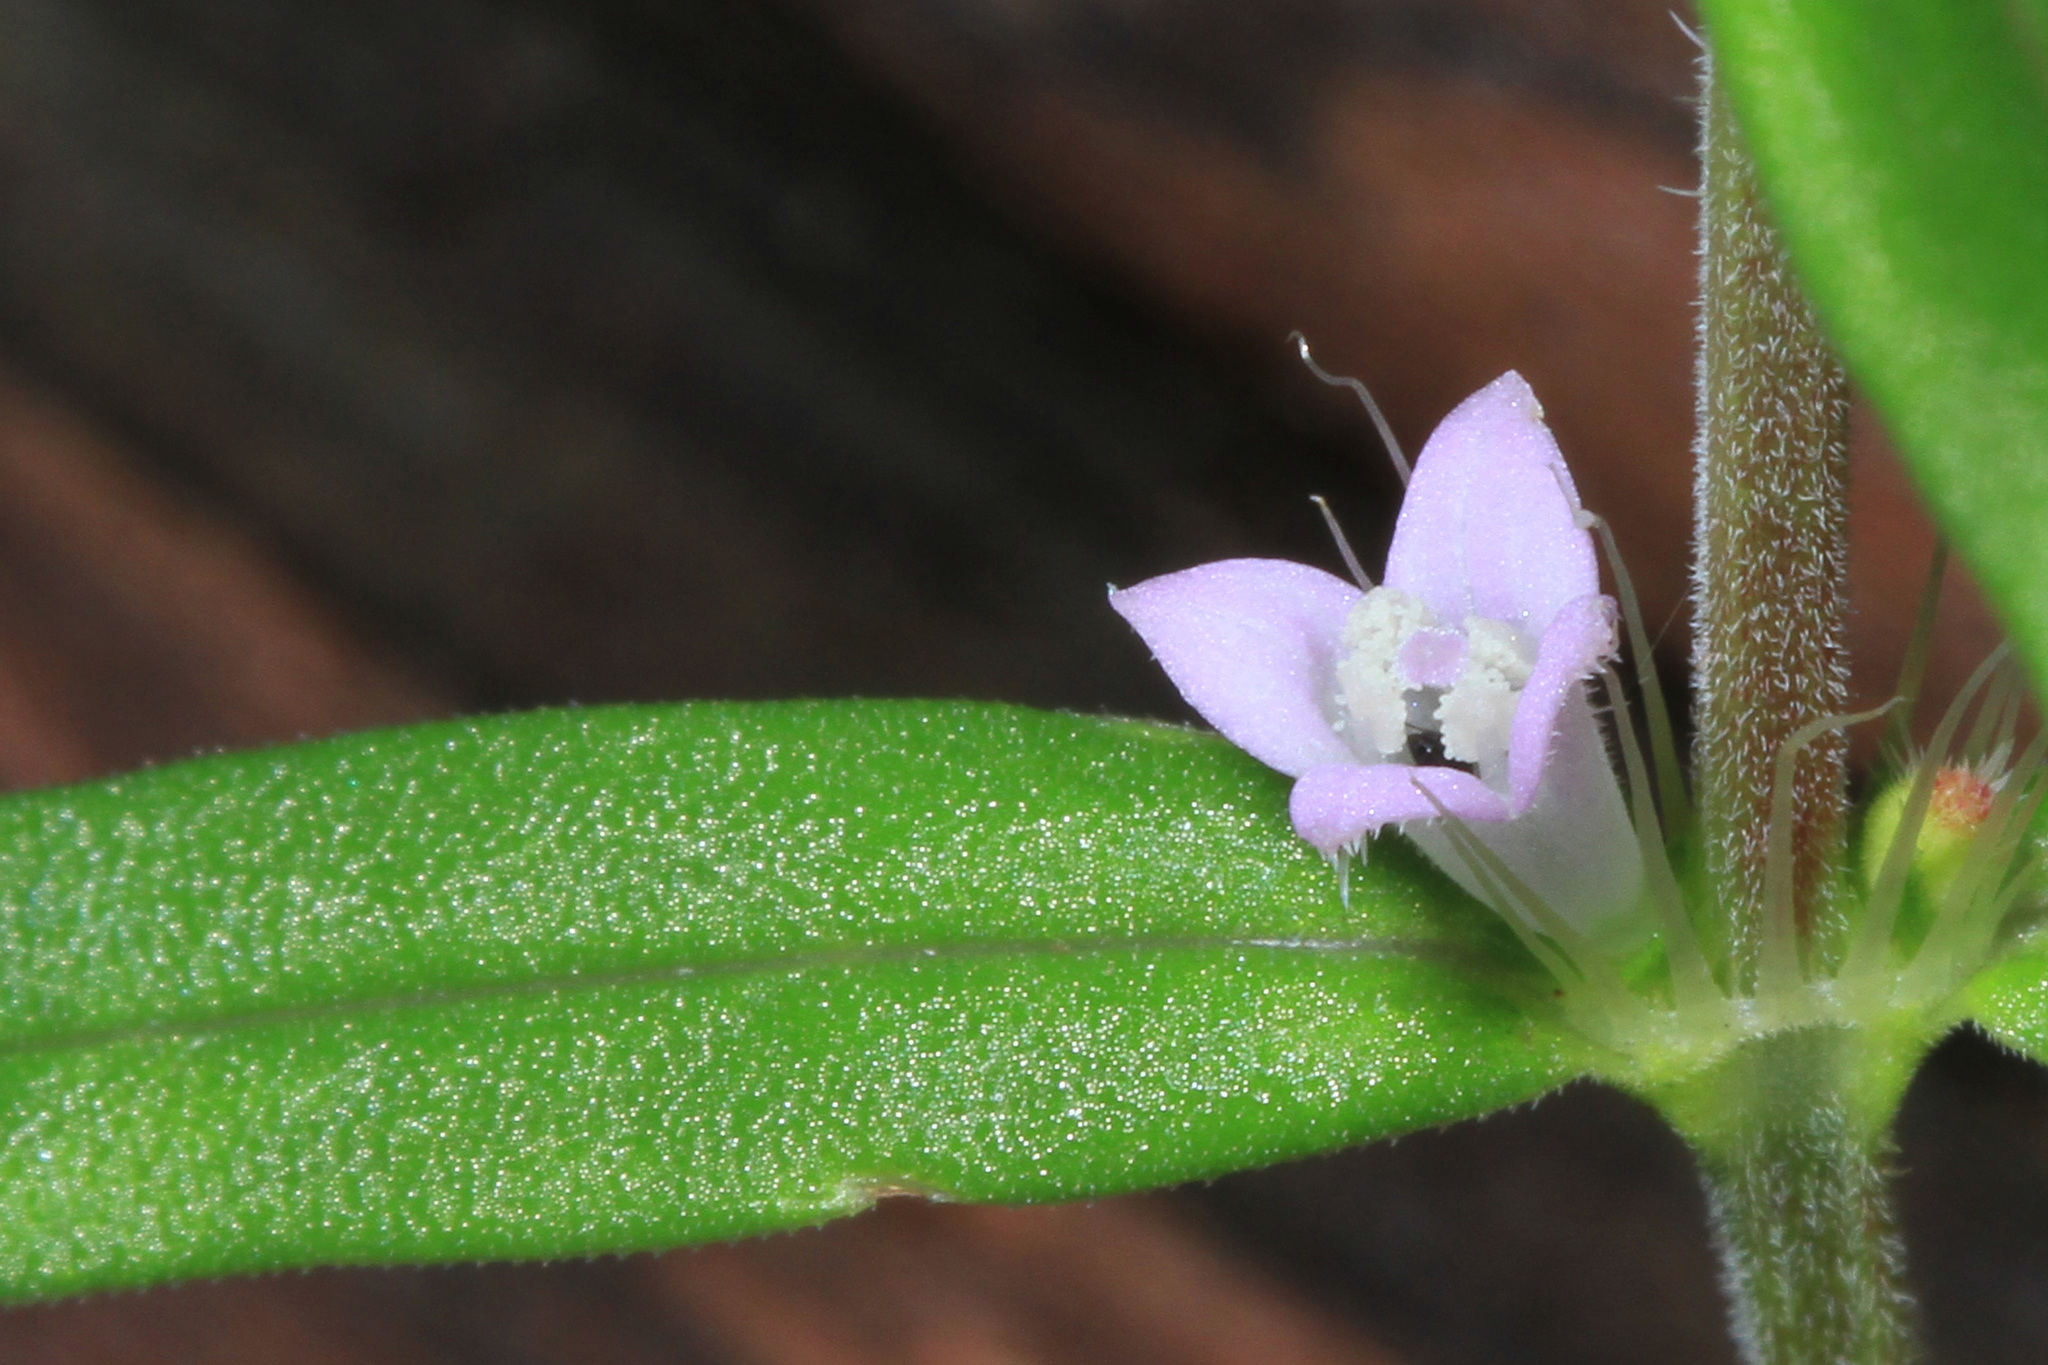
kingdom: Plantae
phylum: Tracheophyta
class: Magnoliopsida
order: Gentianales
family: Rubiaceae
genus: Hexasepalum
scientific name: Hexasepalum teres
